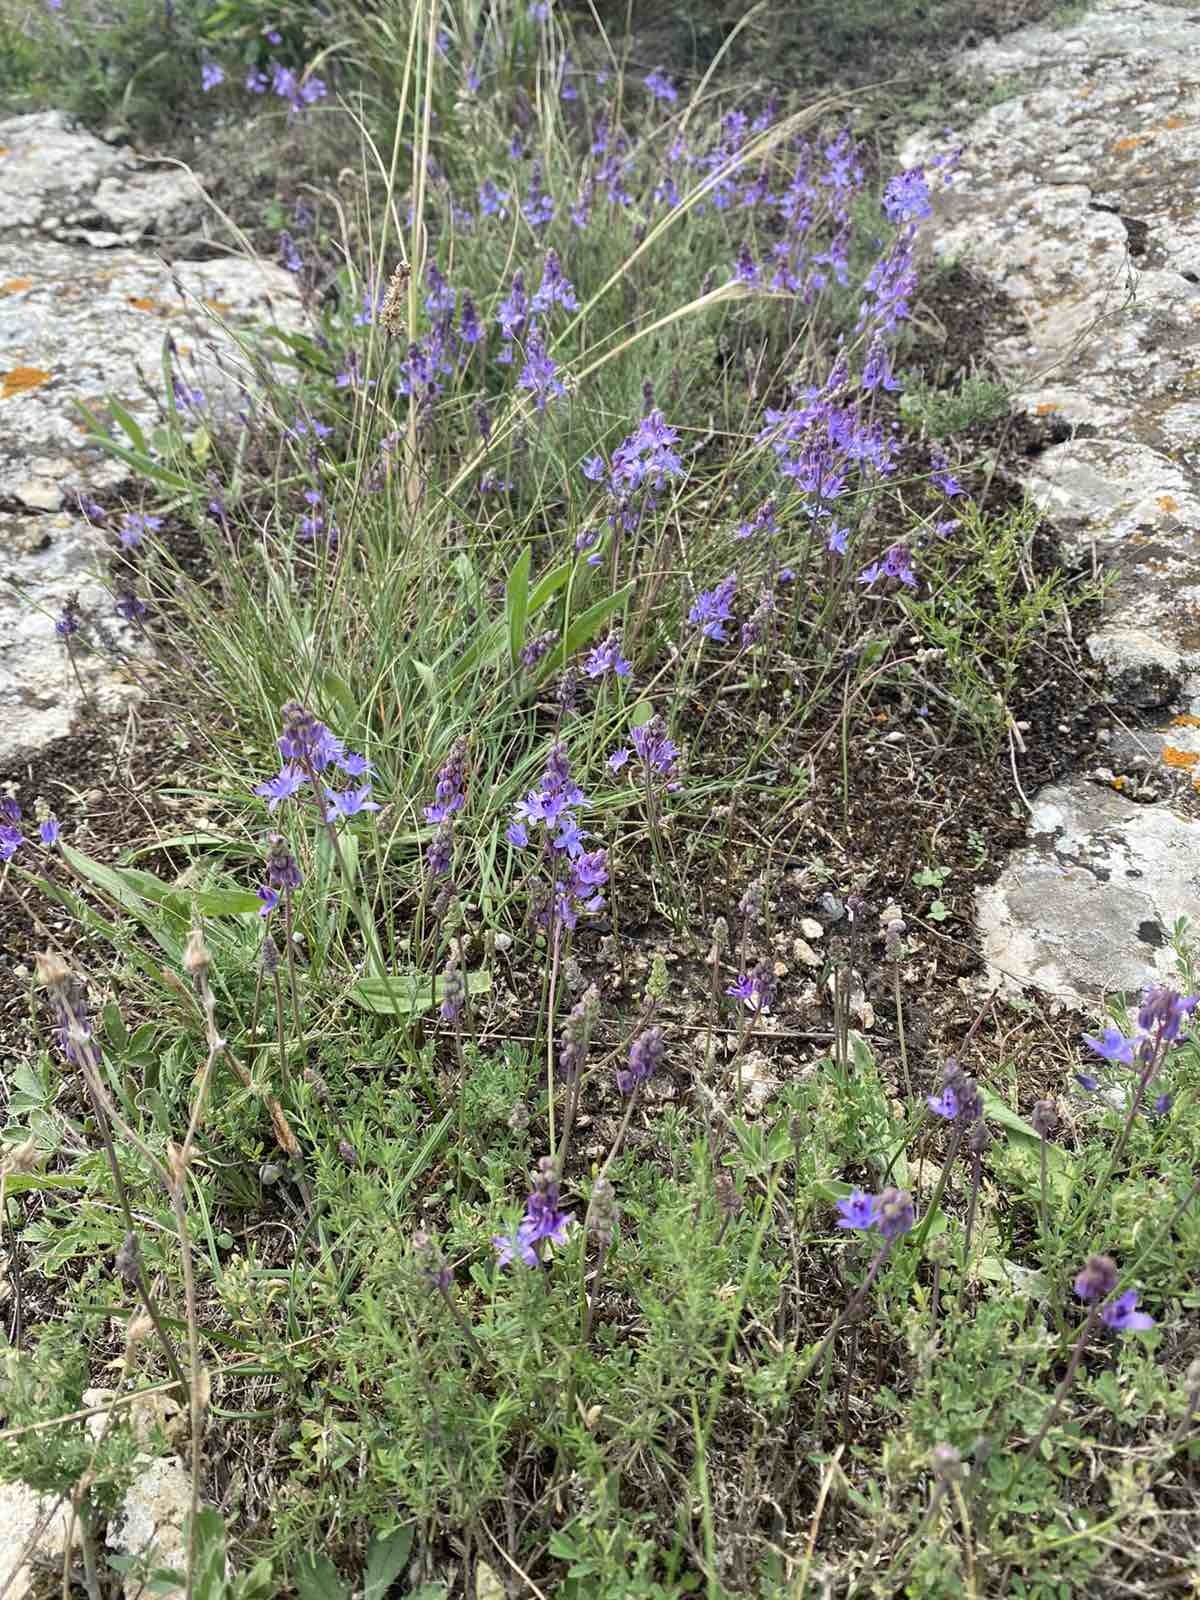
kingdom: Plantae
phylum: Tracheophyta
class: Magnoliopsida
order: Lamiales
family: Plantaginaceae
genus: Veronica
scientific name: Veronica capsellicarpa
